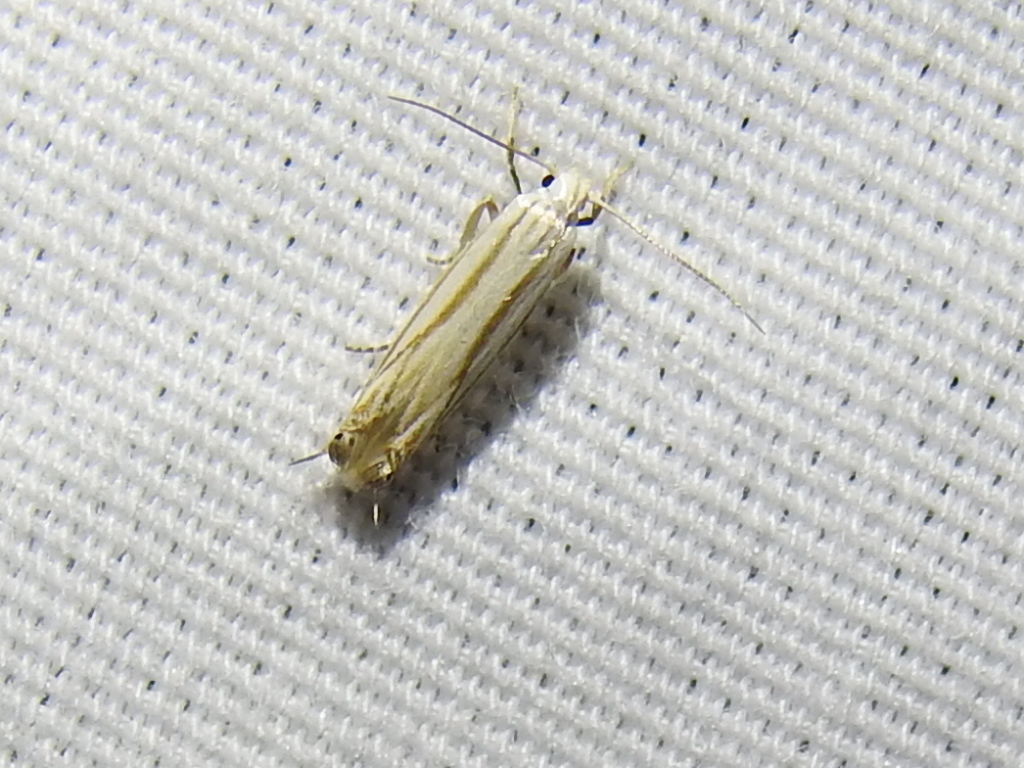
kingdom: Animalia
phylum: Arthropoda
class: Insecta
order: Lepidoptera
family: Gelechiidae
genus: Polyhymno
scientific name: Polyhymno luteostrigella
